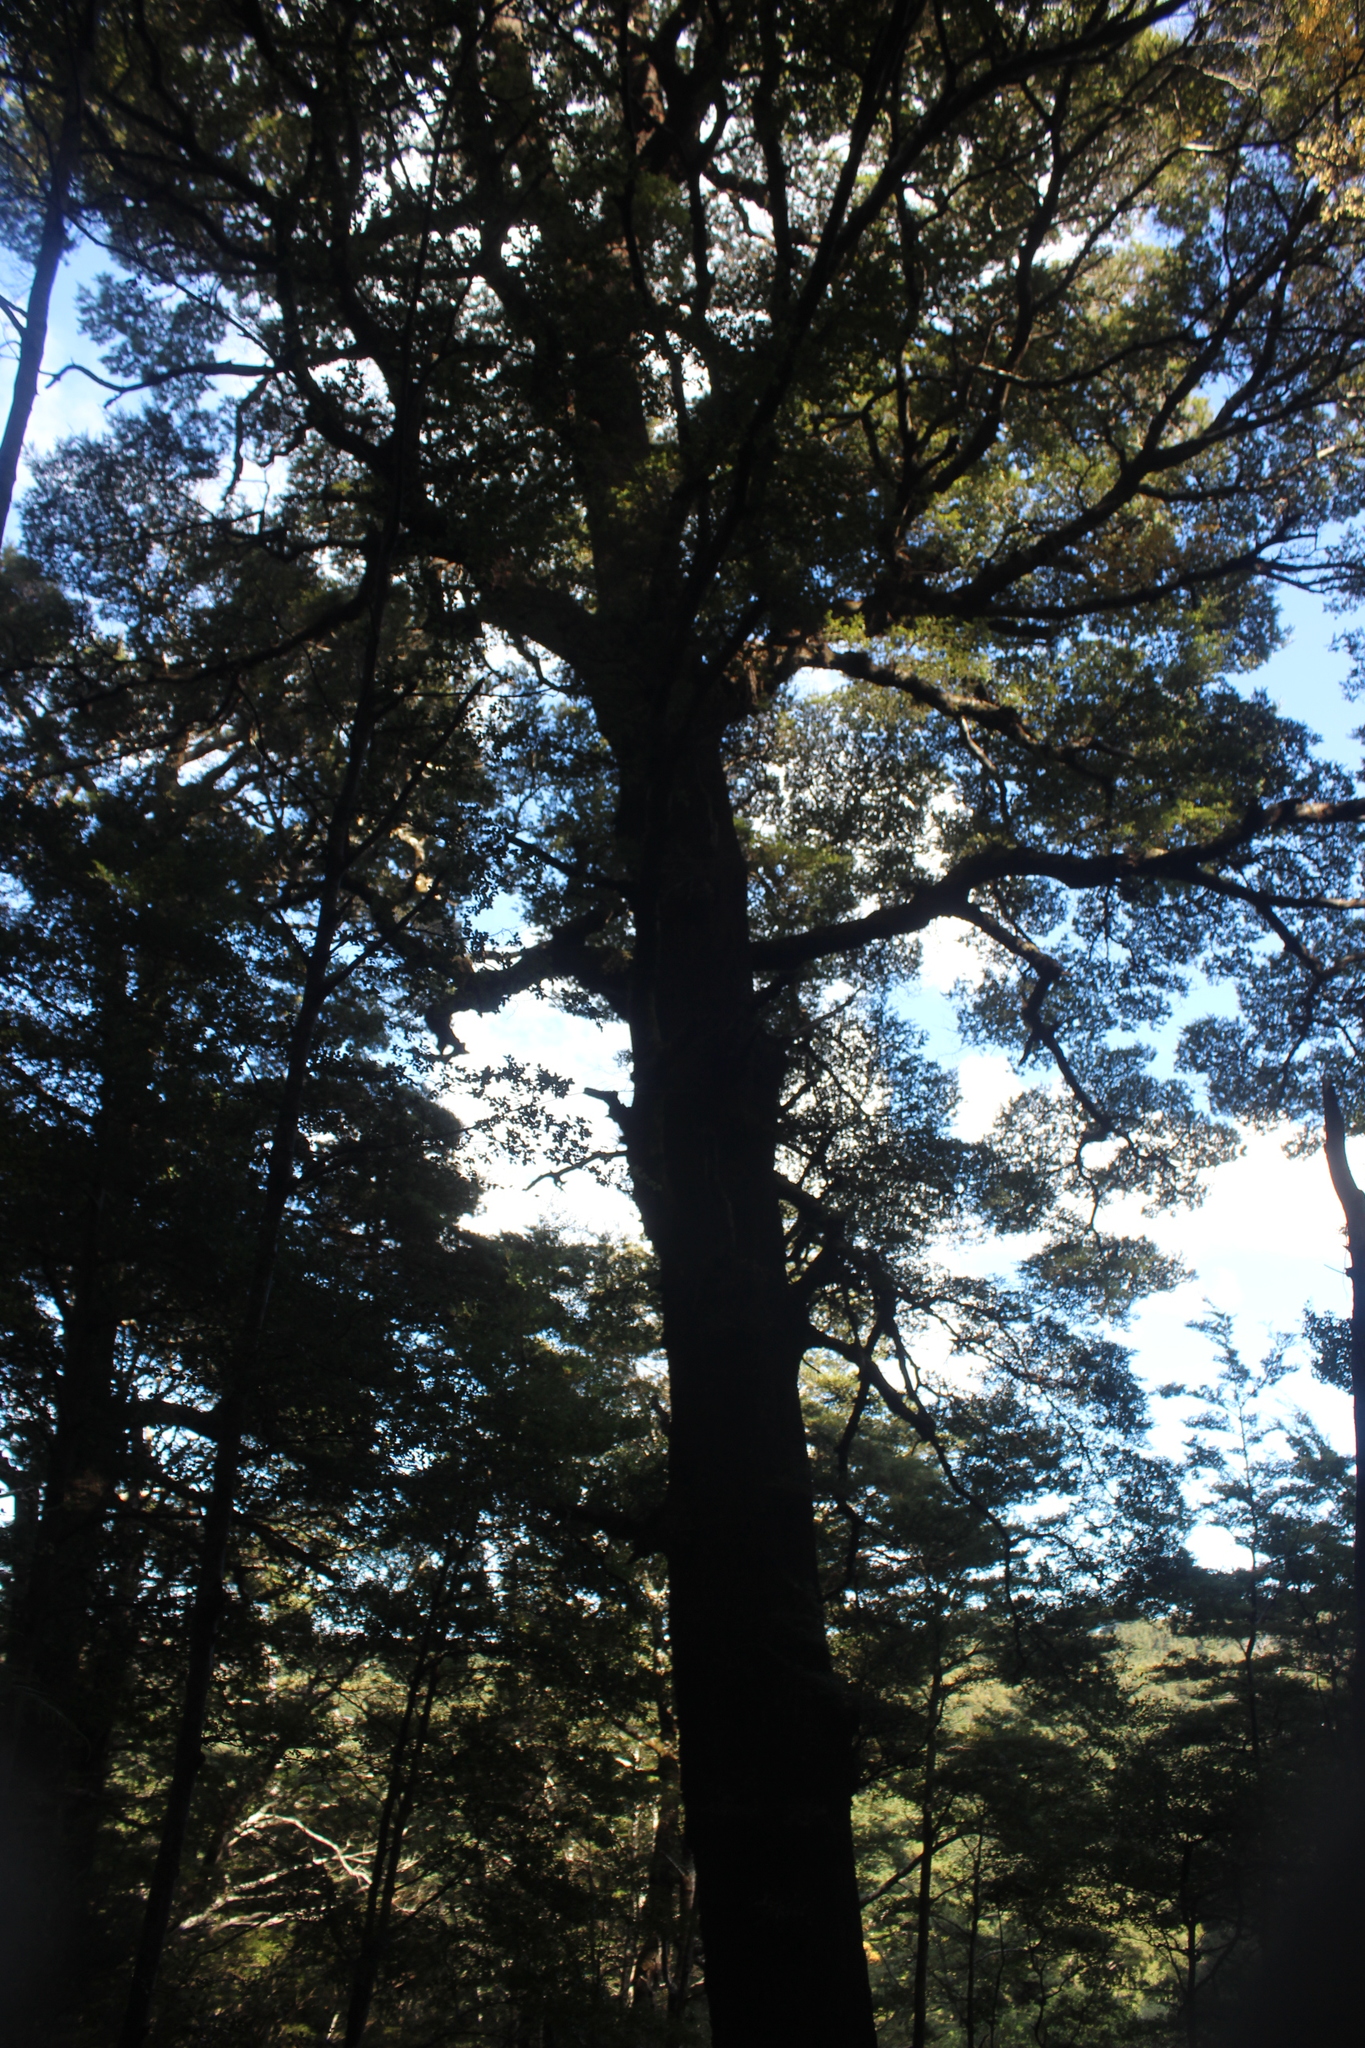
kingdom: Plantae
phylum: Tracheophyta
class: Magnoliopsida
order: Fagales
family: Nothofagaceae
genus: Nothofagus
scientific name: Nothofagus solandri
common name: Black beech
